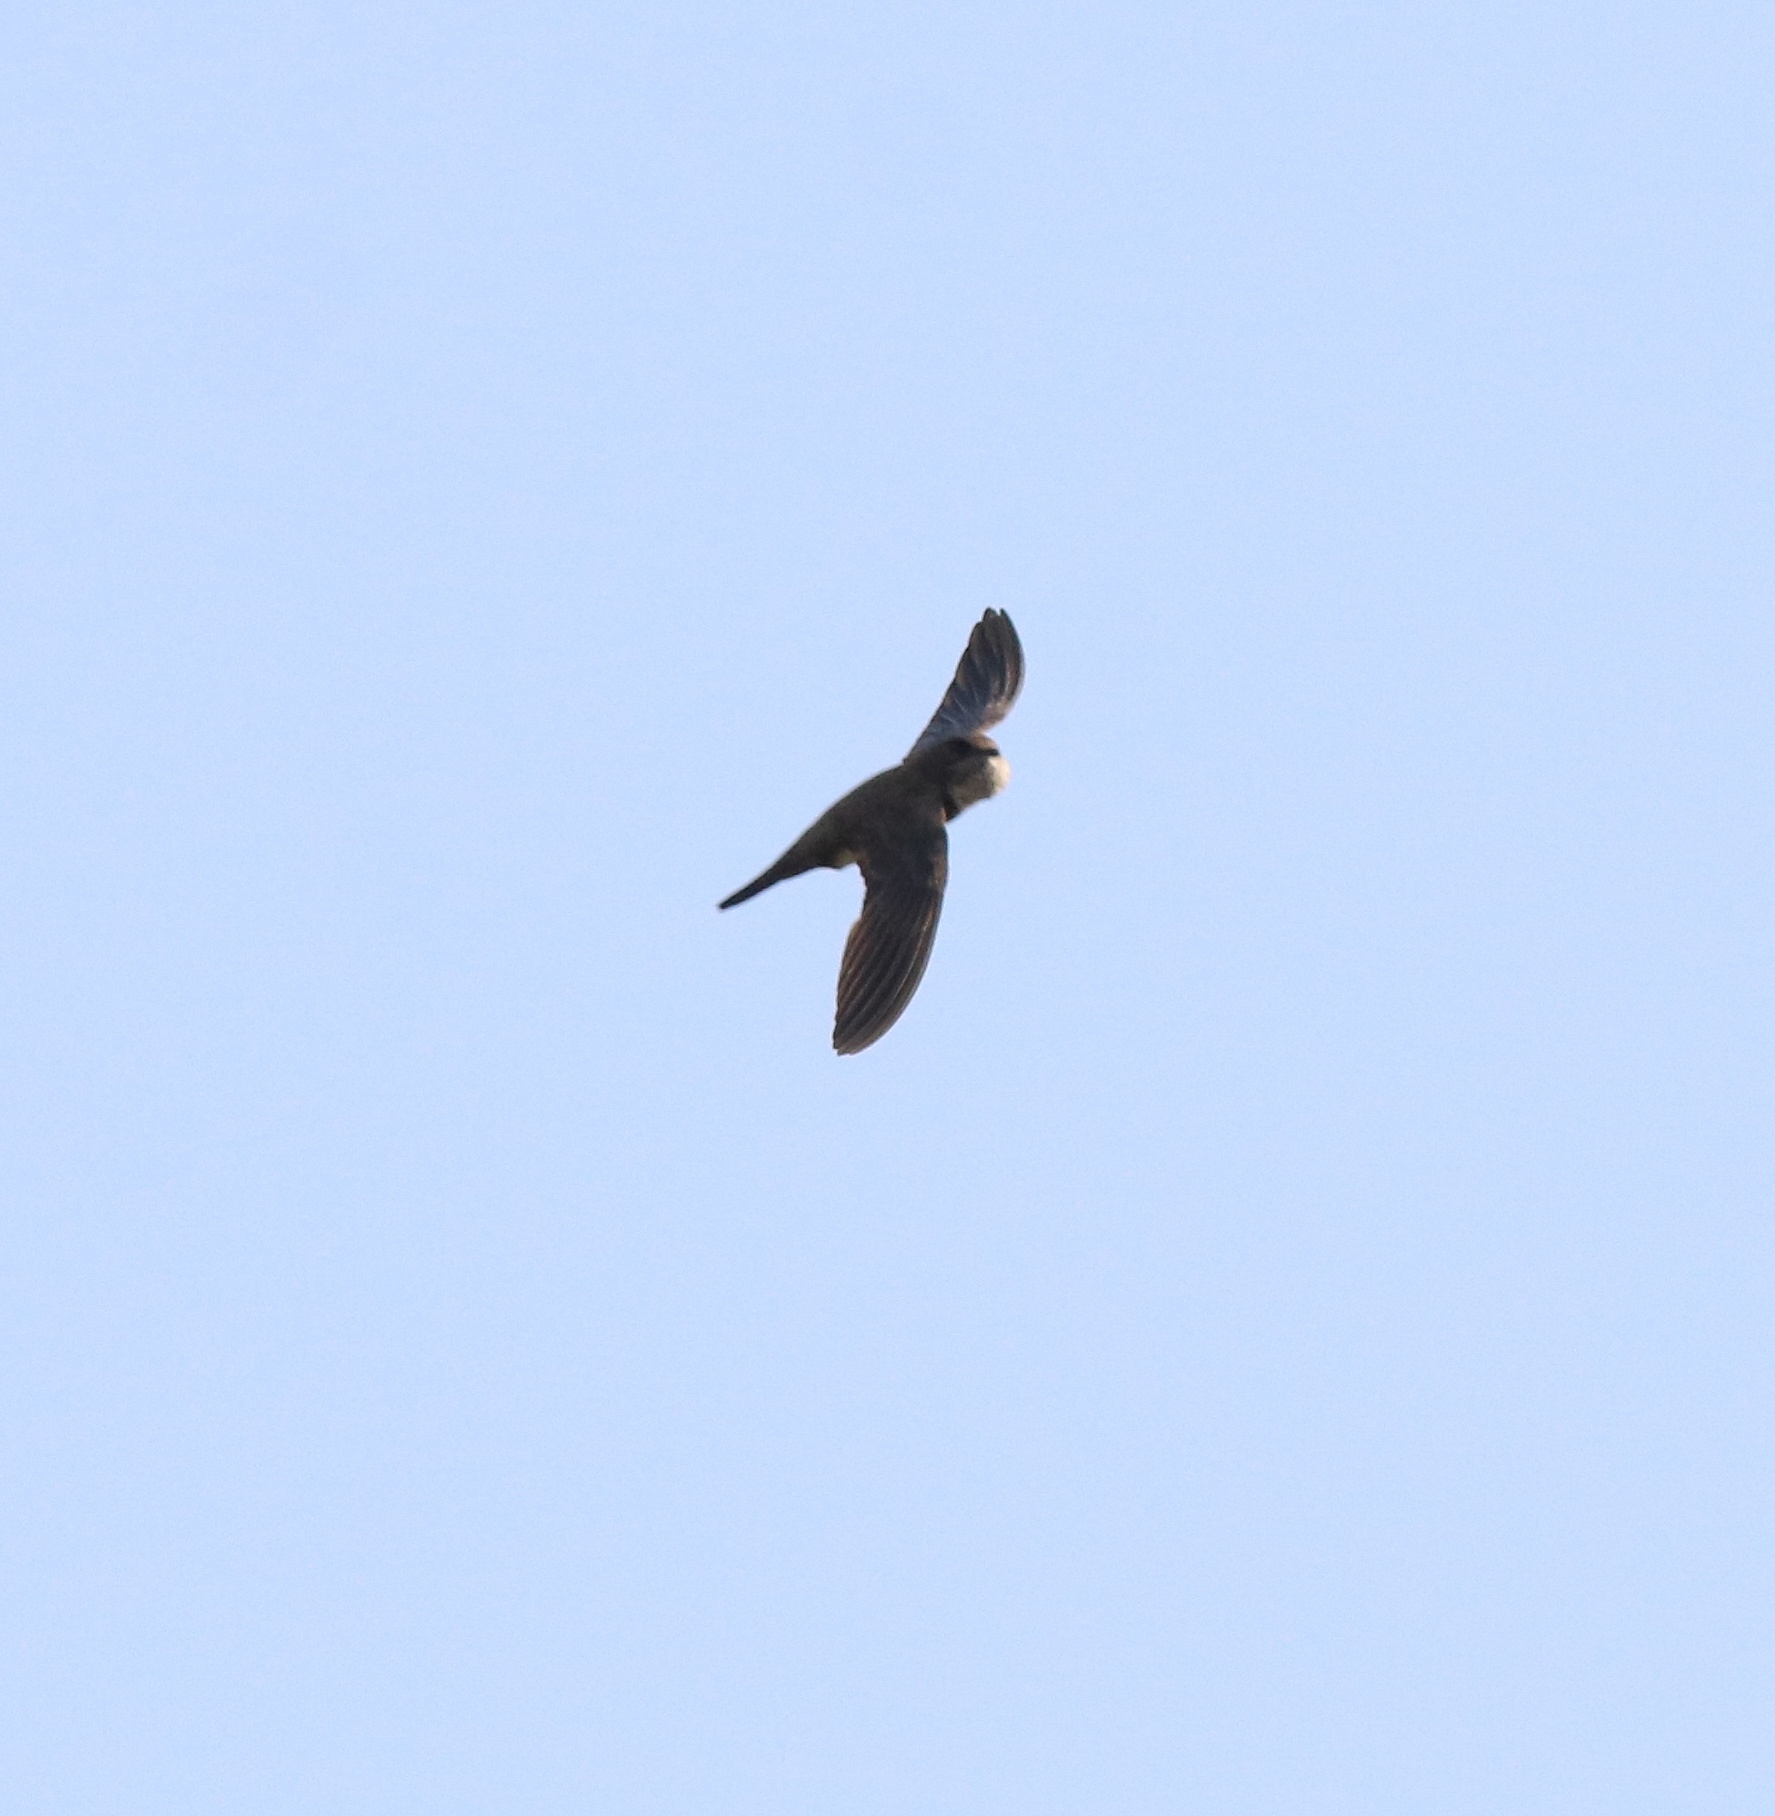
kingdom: Animalia
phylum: Chordata
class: Aves
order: Apodiformes
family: Apodidae
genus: Tachymarptis
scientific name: Tachymarptis melba
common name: Alpine swift
